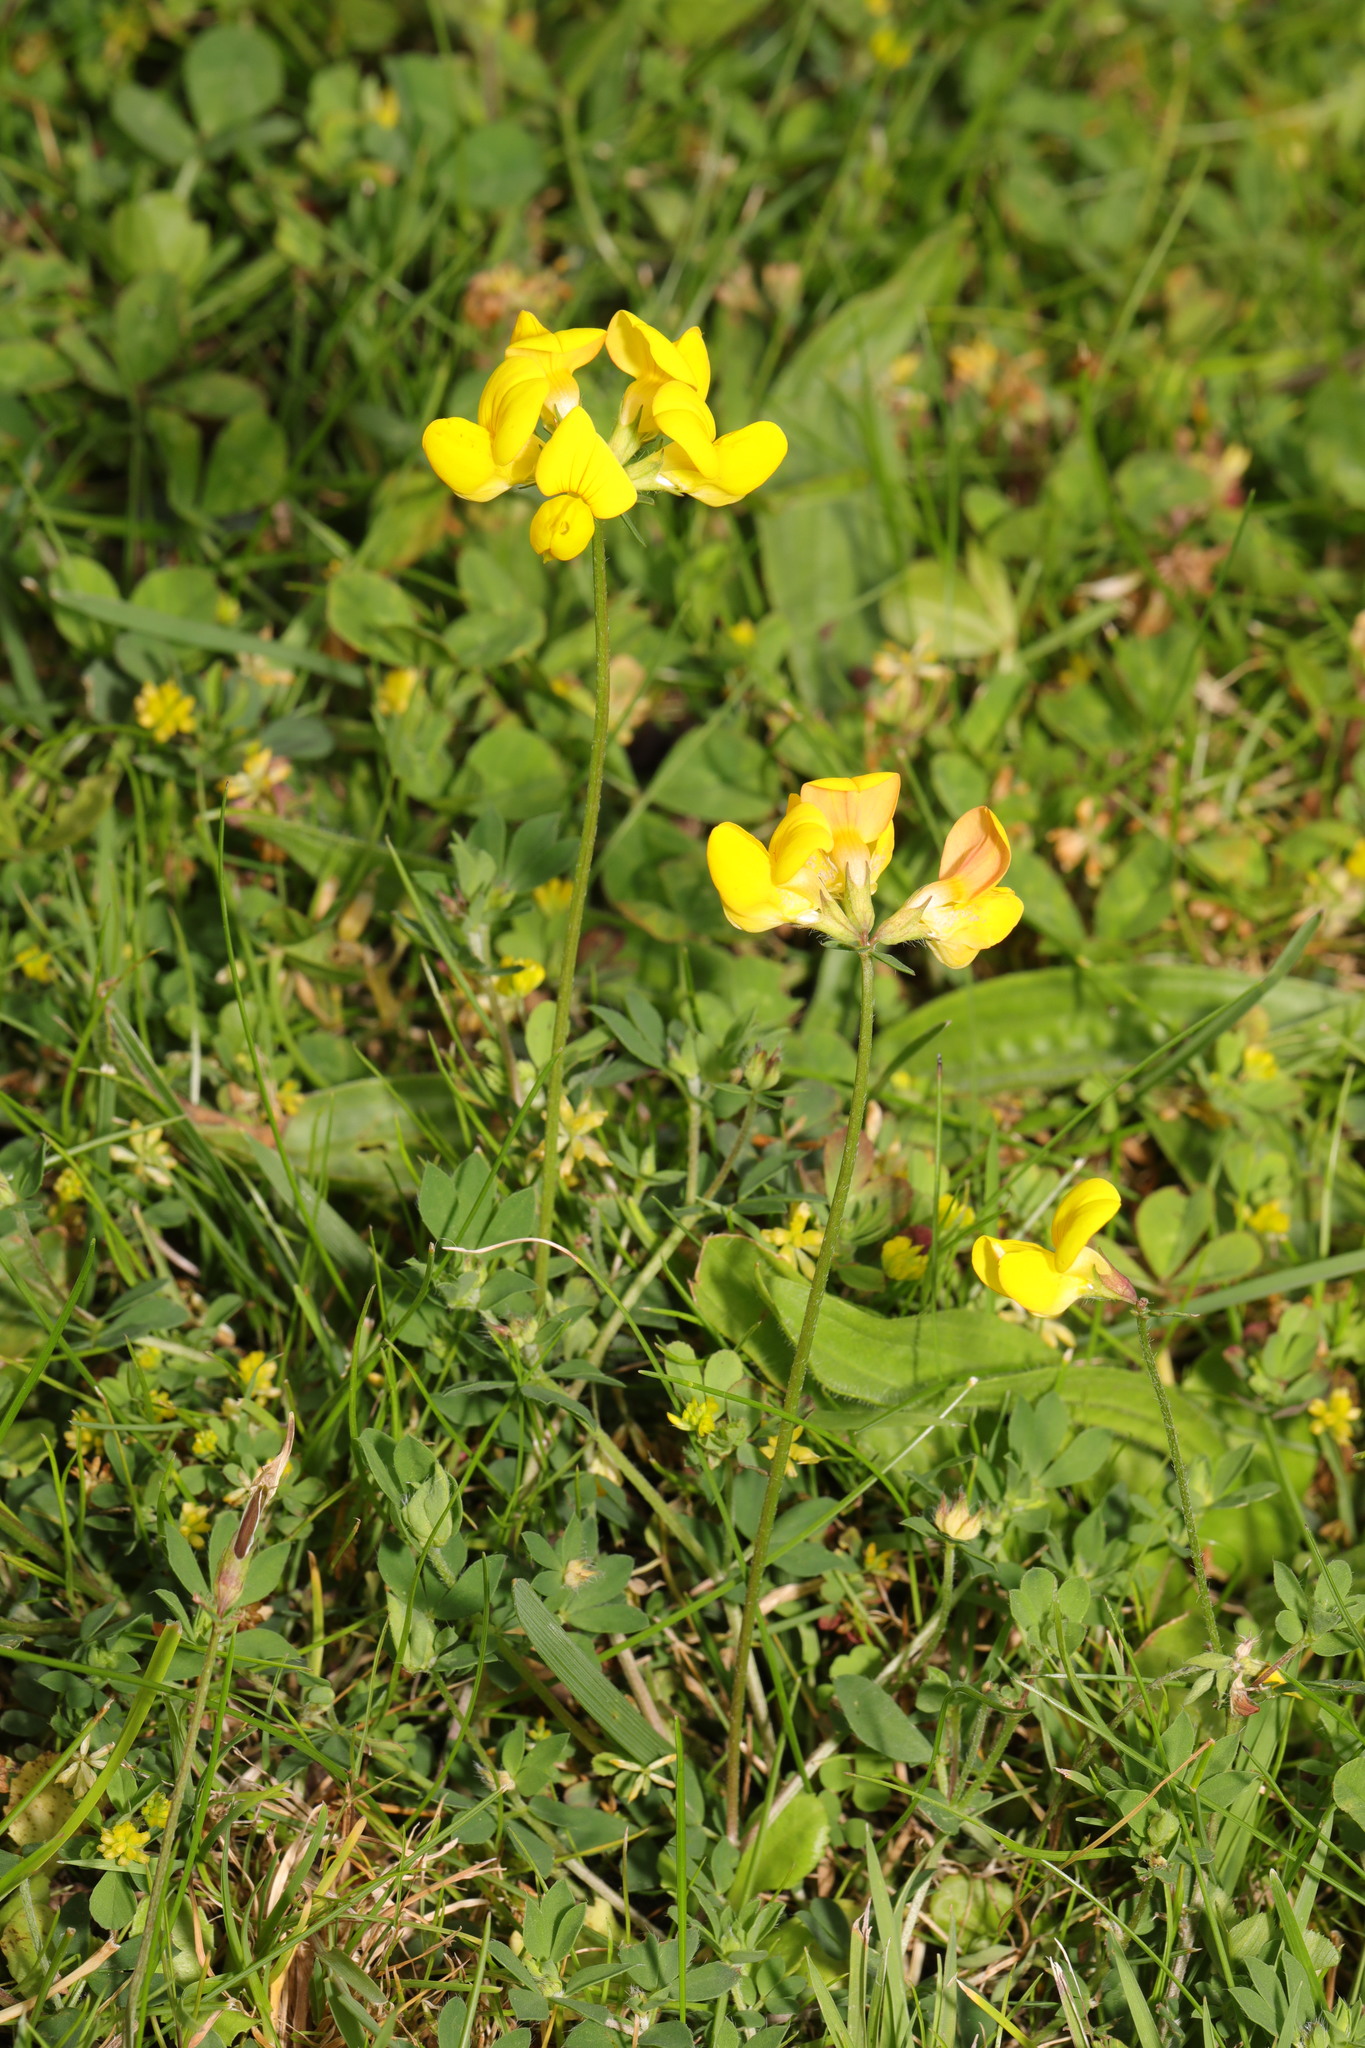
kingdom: Plantae
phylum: Tracheophyta
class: Magnoliopsida
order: Fabales
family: Fabaceae
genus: Lotus
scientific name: Lotus corniculatus
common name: Common bird's-foot-trefoil
